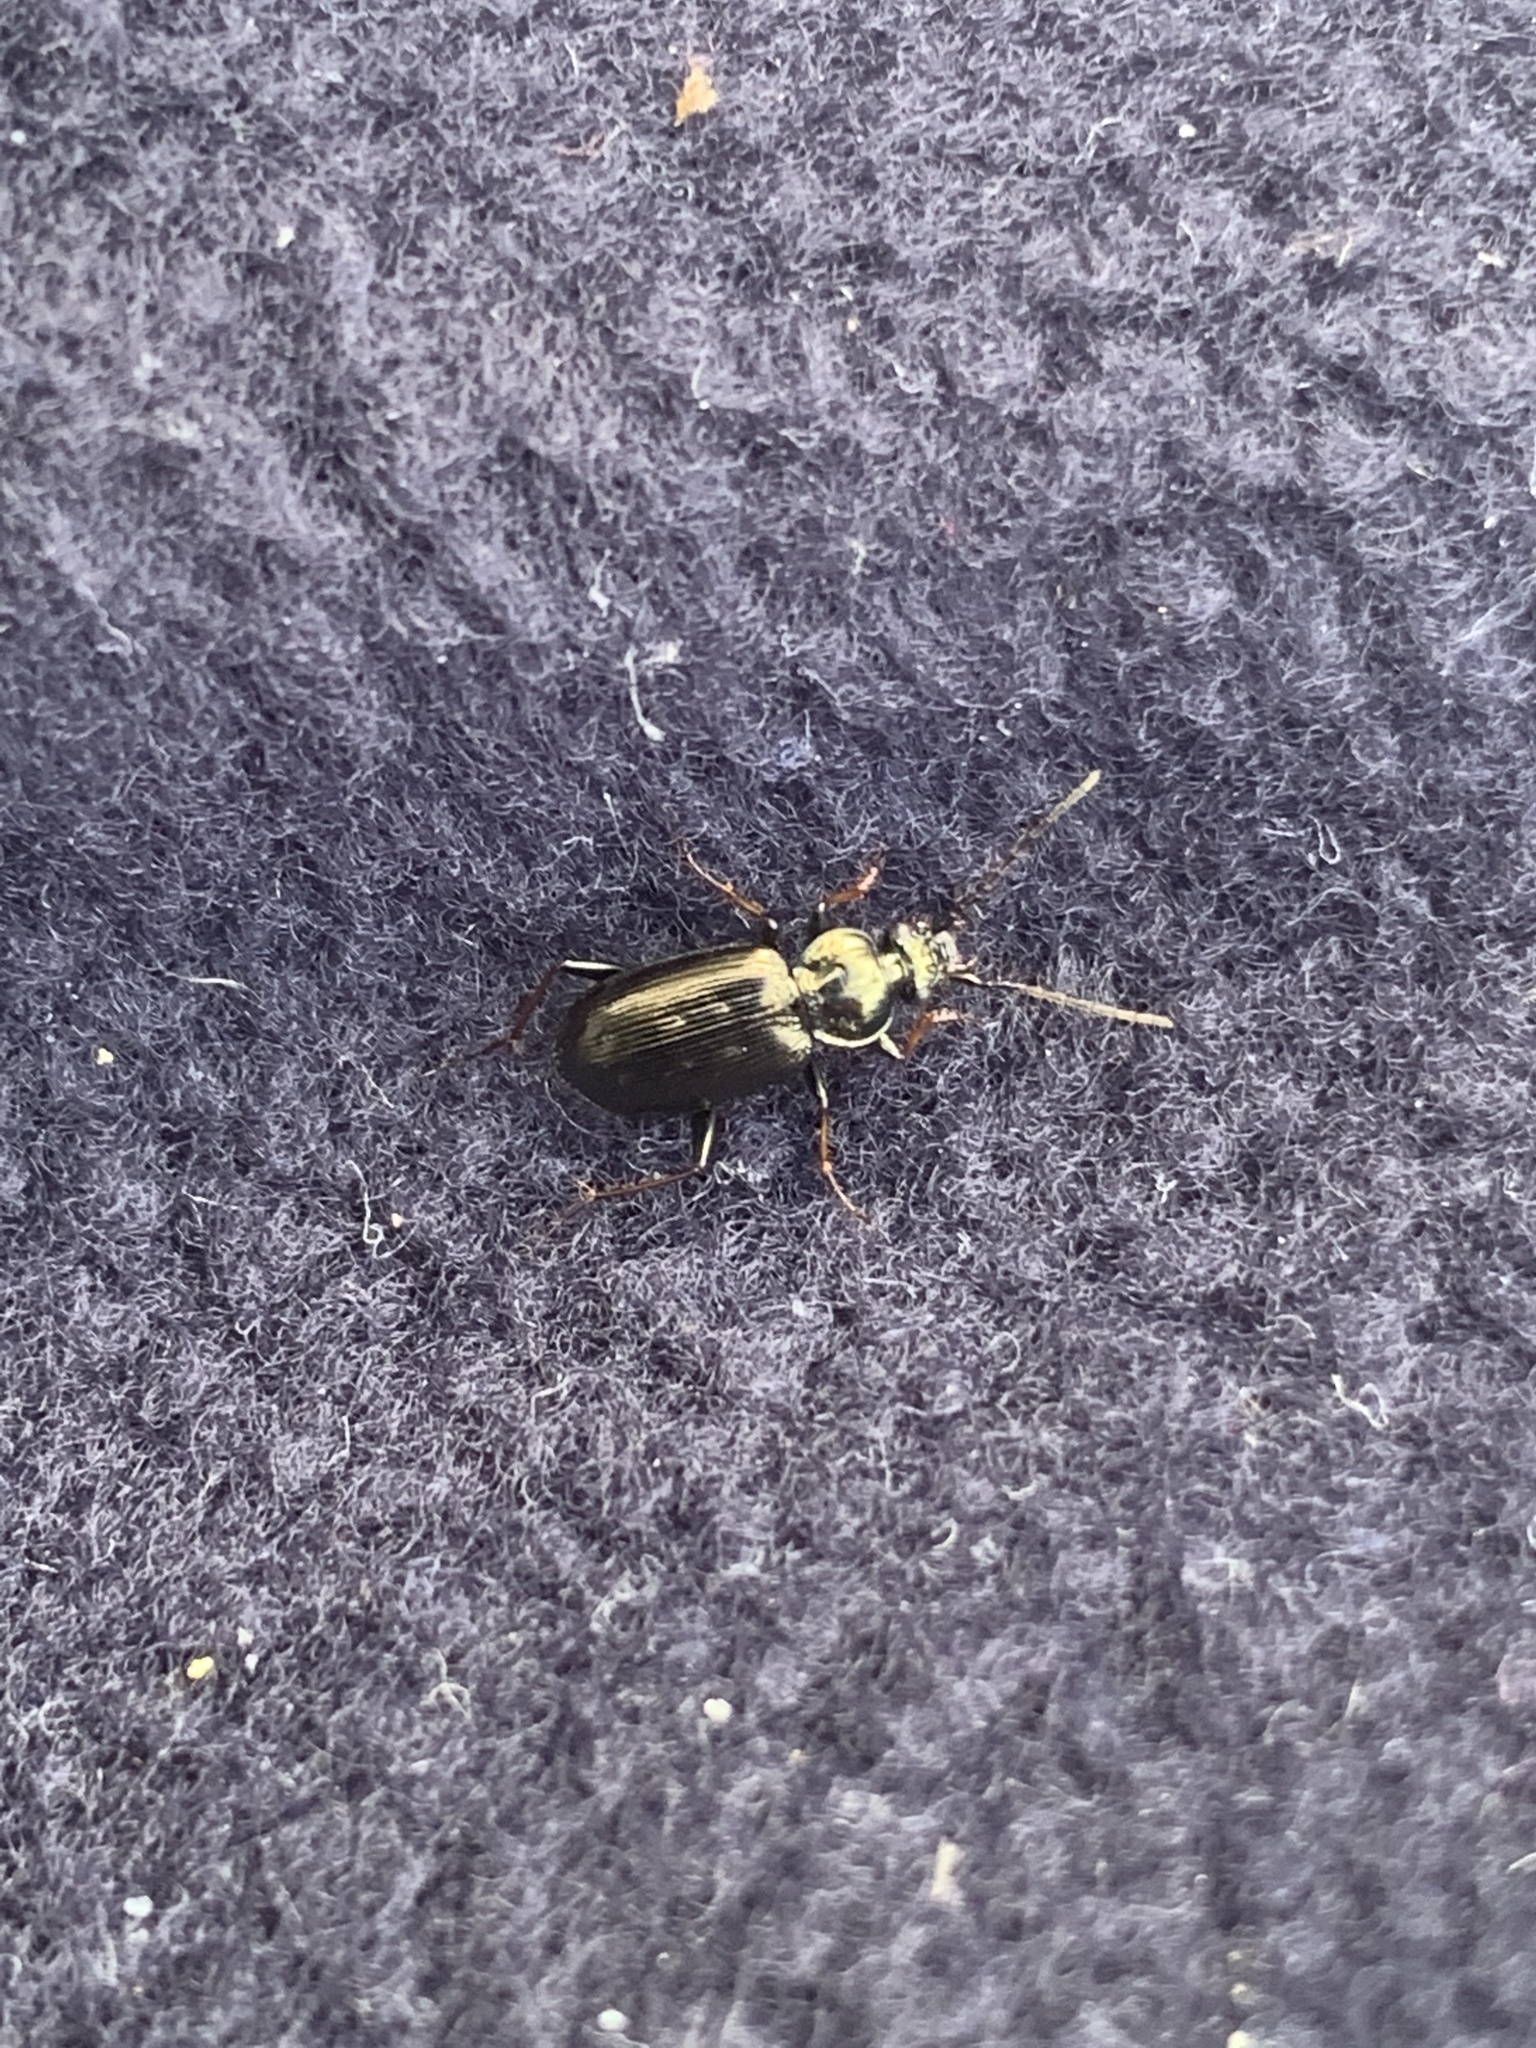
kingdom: Animalia
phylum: Arthropoda
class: Insecta
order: Coleoptera
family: Carabidae
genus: Loricera
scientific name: Loricera pilicornis
